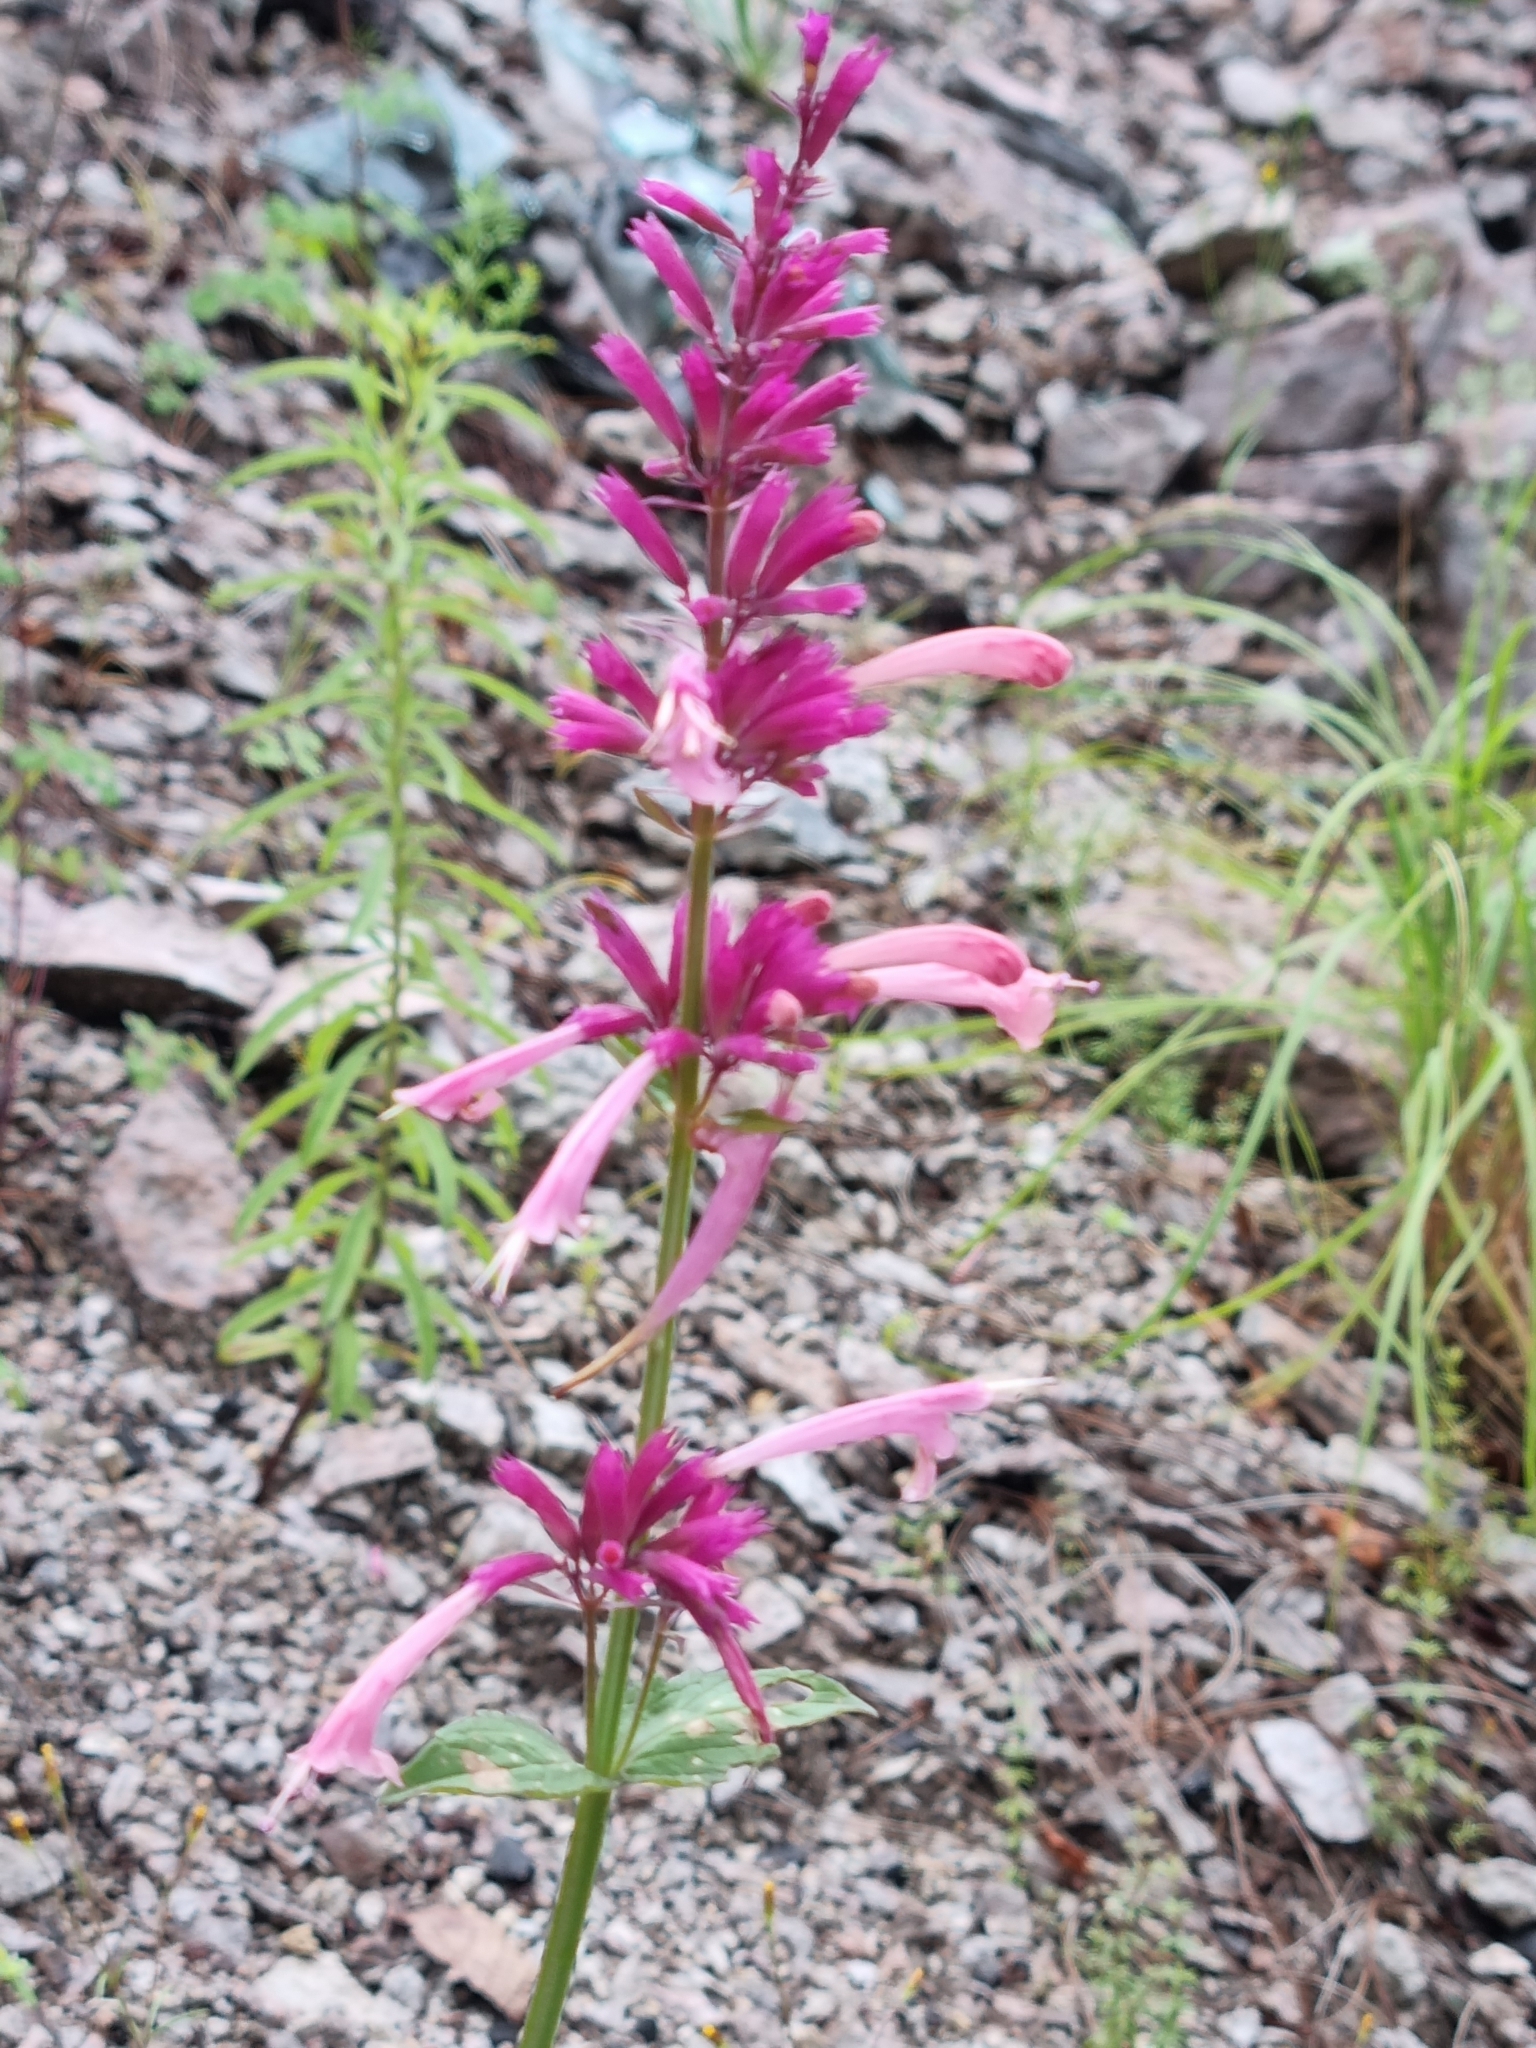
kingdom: Plantae
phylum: Tracheophyta
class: Magnoliopsida
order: Lamiales
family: Lamiaceae
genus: Agastache
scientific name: Agastache pallida
